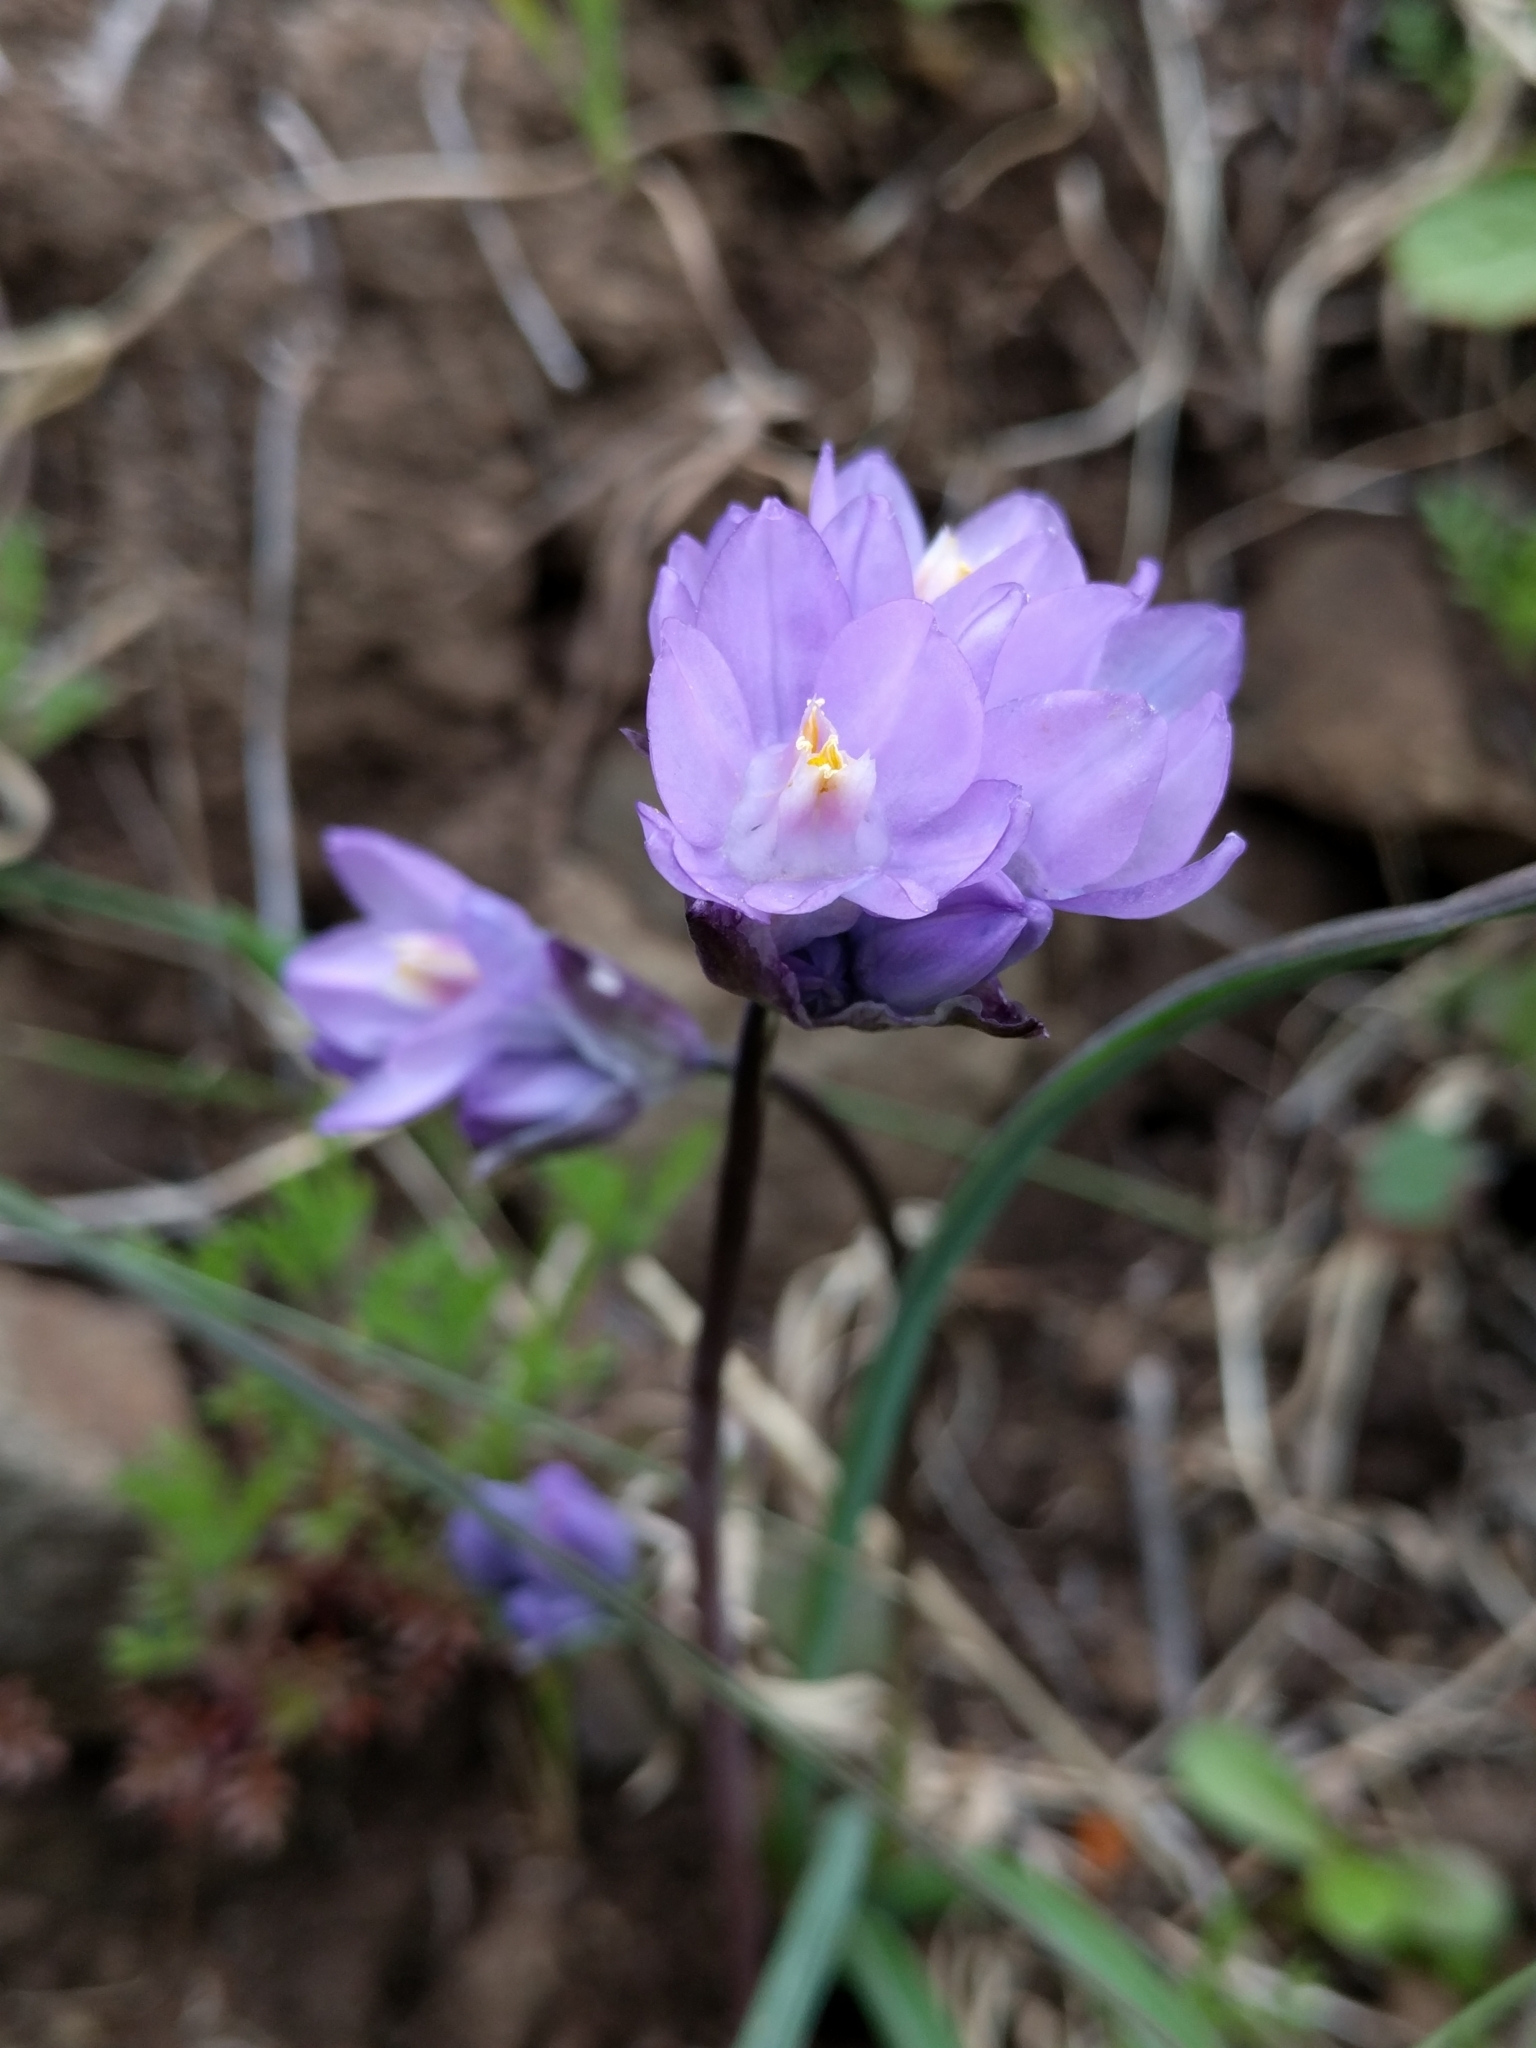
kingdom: Plantae
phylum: Tracheophyta
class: Liliopsida
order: Asparagales
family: Asparagaceae
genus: Dipterostemon
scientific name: Dipterostemon capitatus
